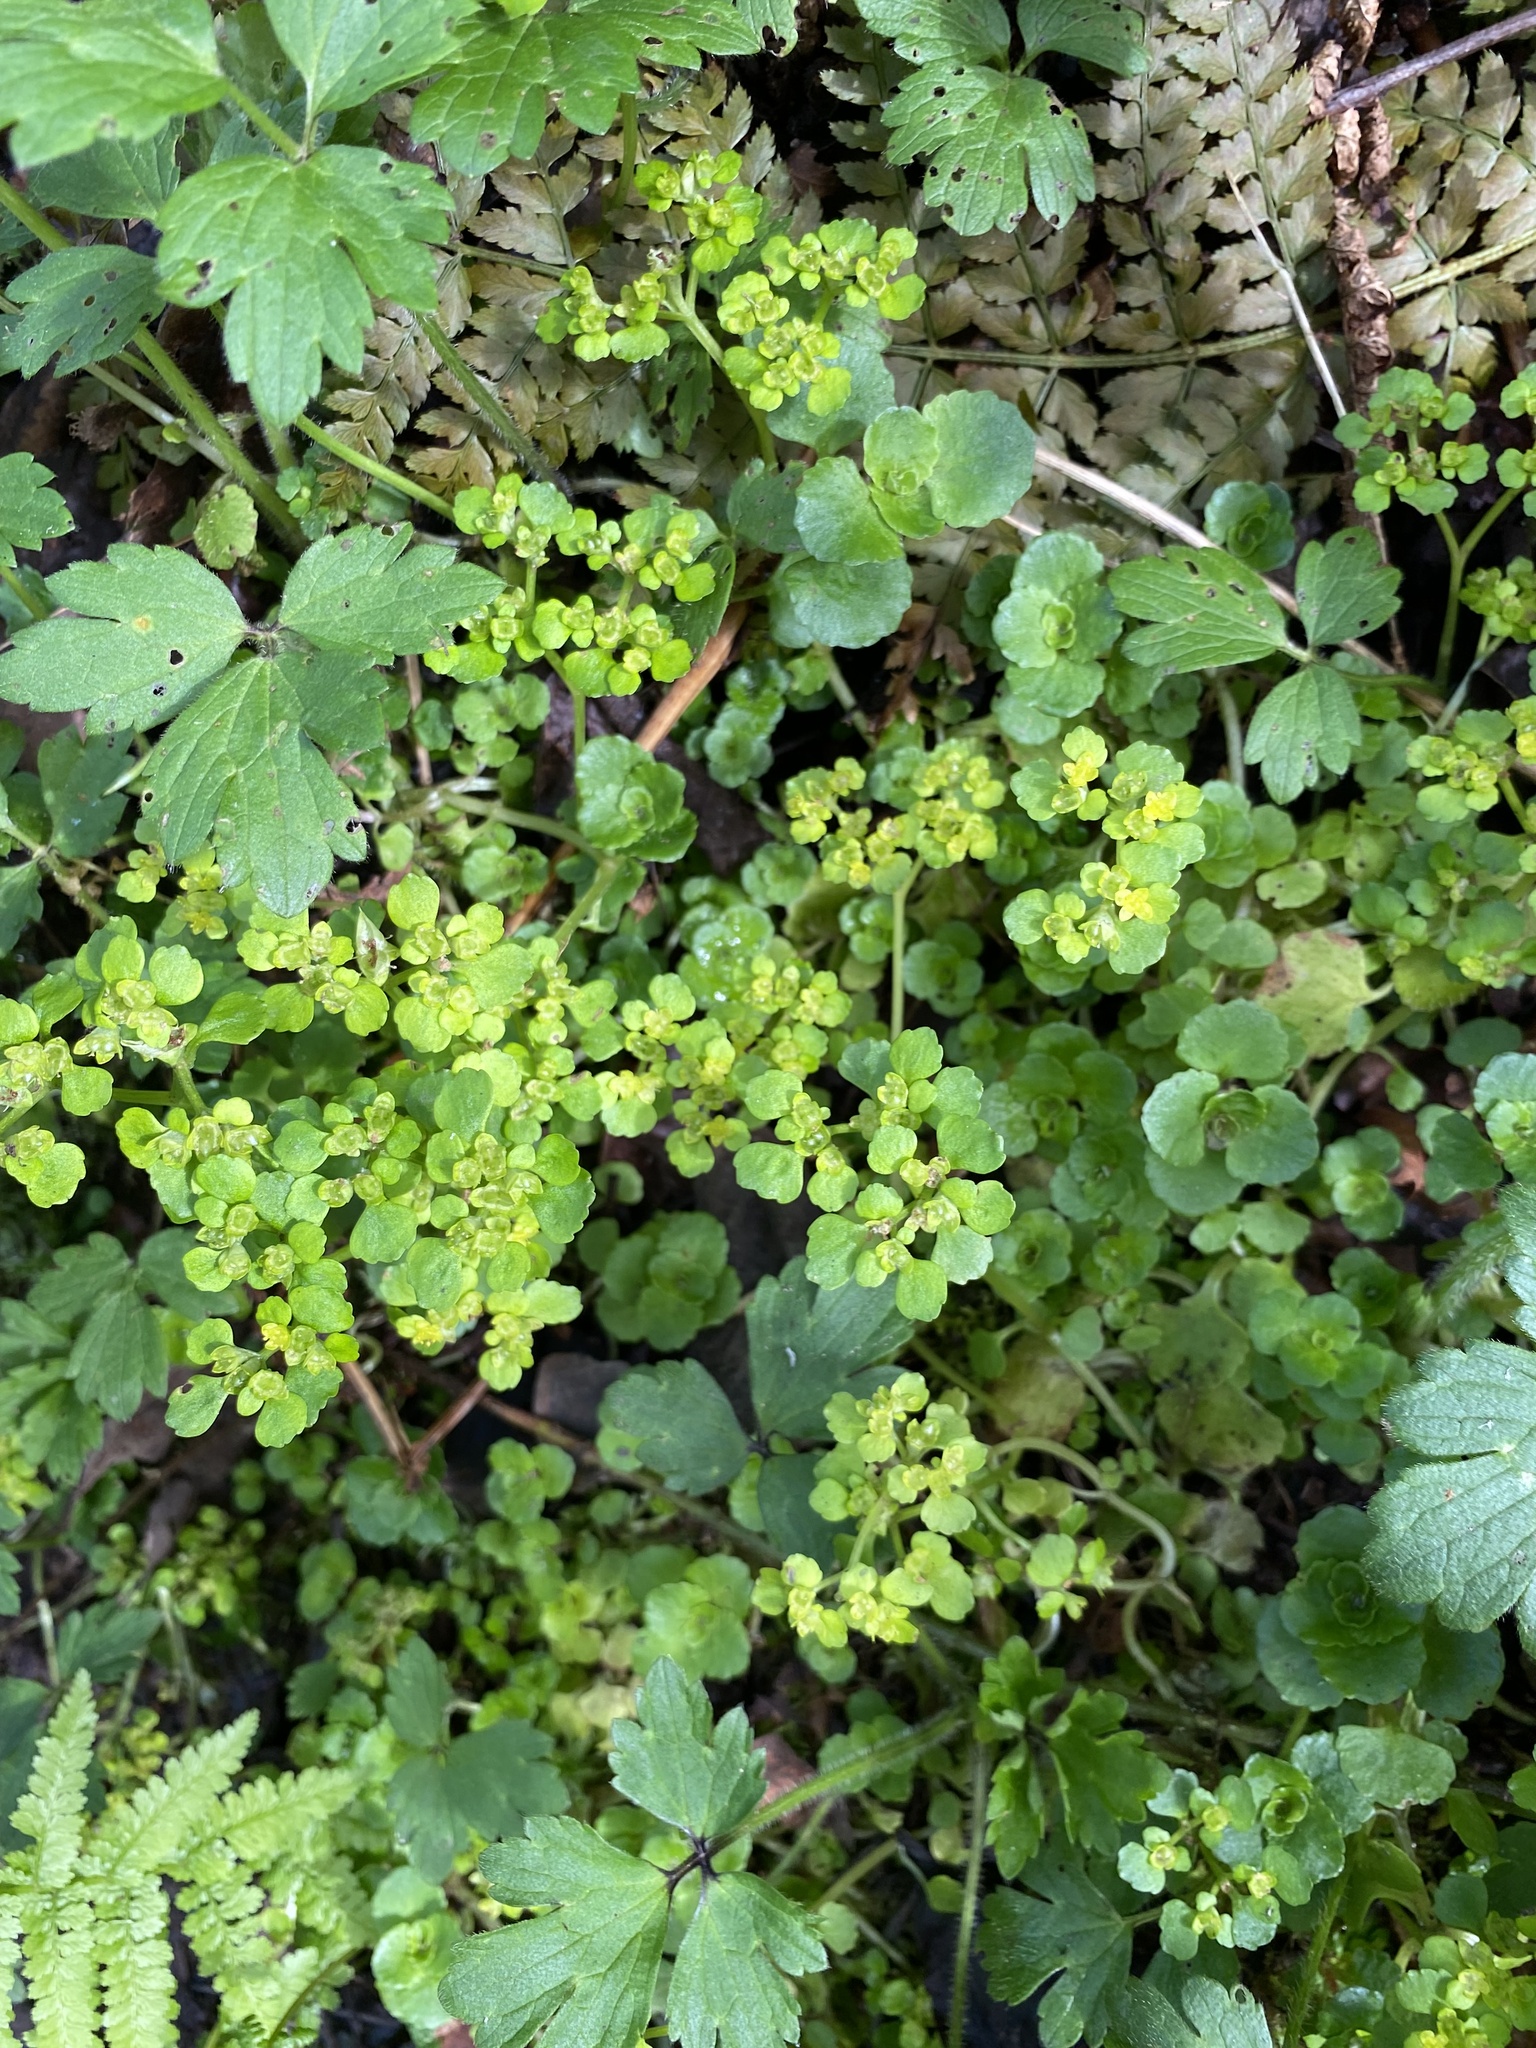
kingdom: Plantae
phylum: Tracheophyta
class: Magnoliopsida
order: Saxifragales
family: Saxifragaceae
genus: Chrysosplenium
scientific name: Chrysosplenium oppositifolium
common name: Opposite-leaved golden-saxifrage
